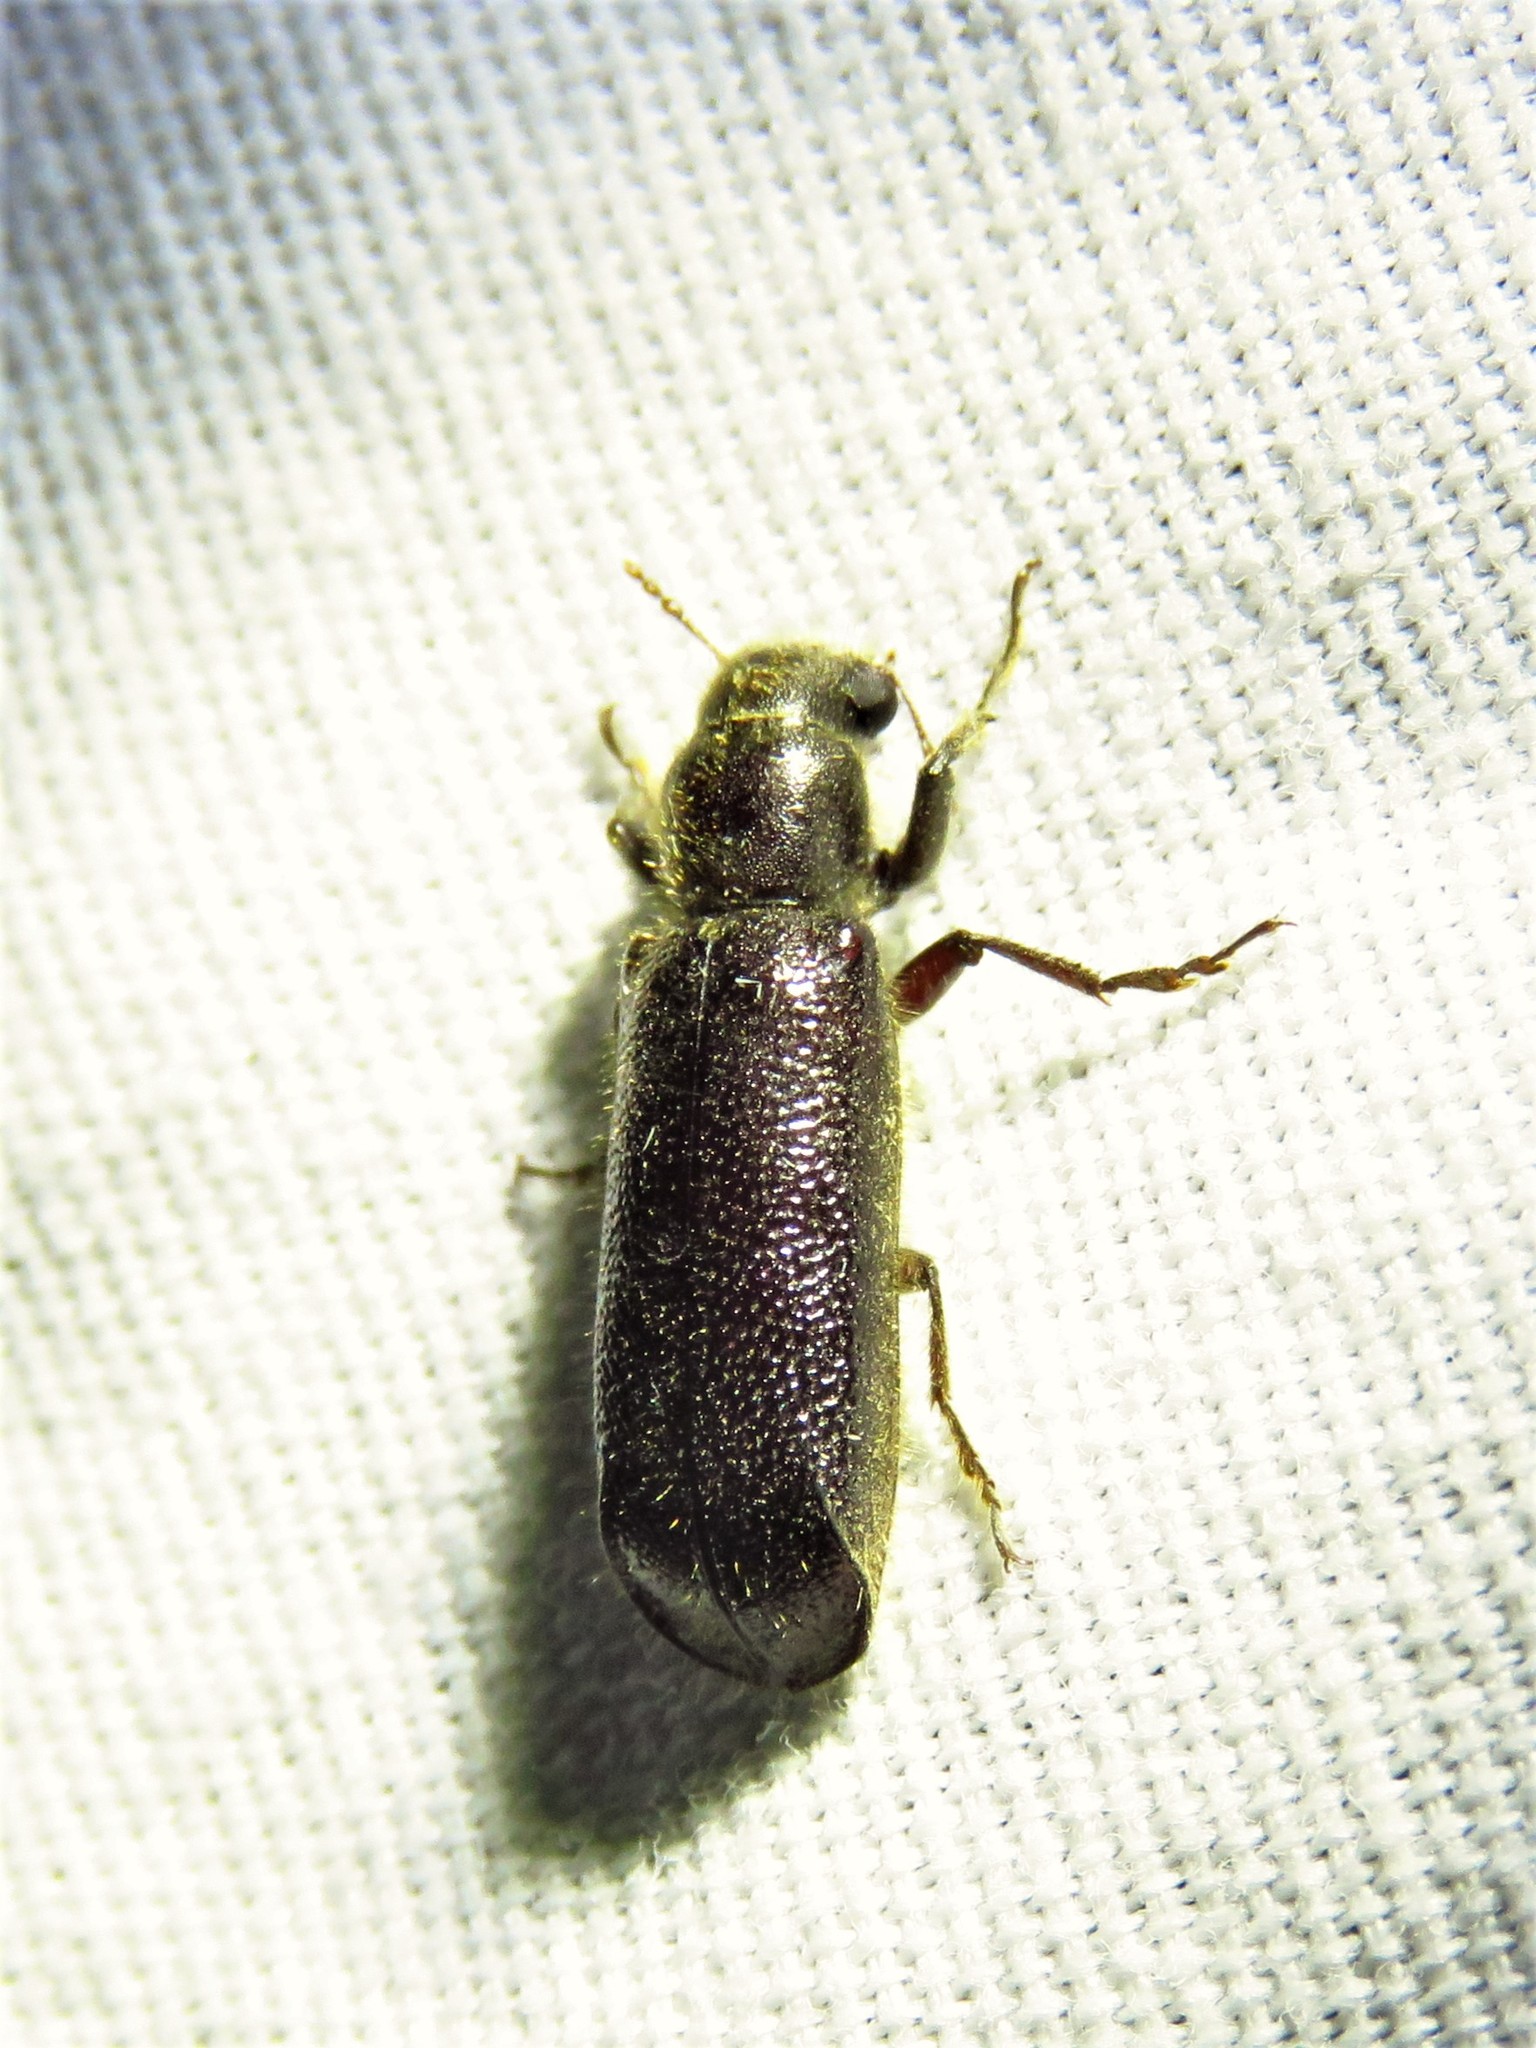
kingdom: Animalia
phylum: Arthropoda
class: Insecta
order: Coleoptera
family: Bostrichidae
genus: Melalgus
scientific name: Melalgus plicatus
